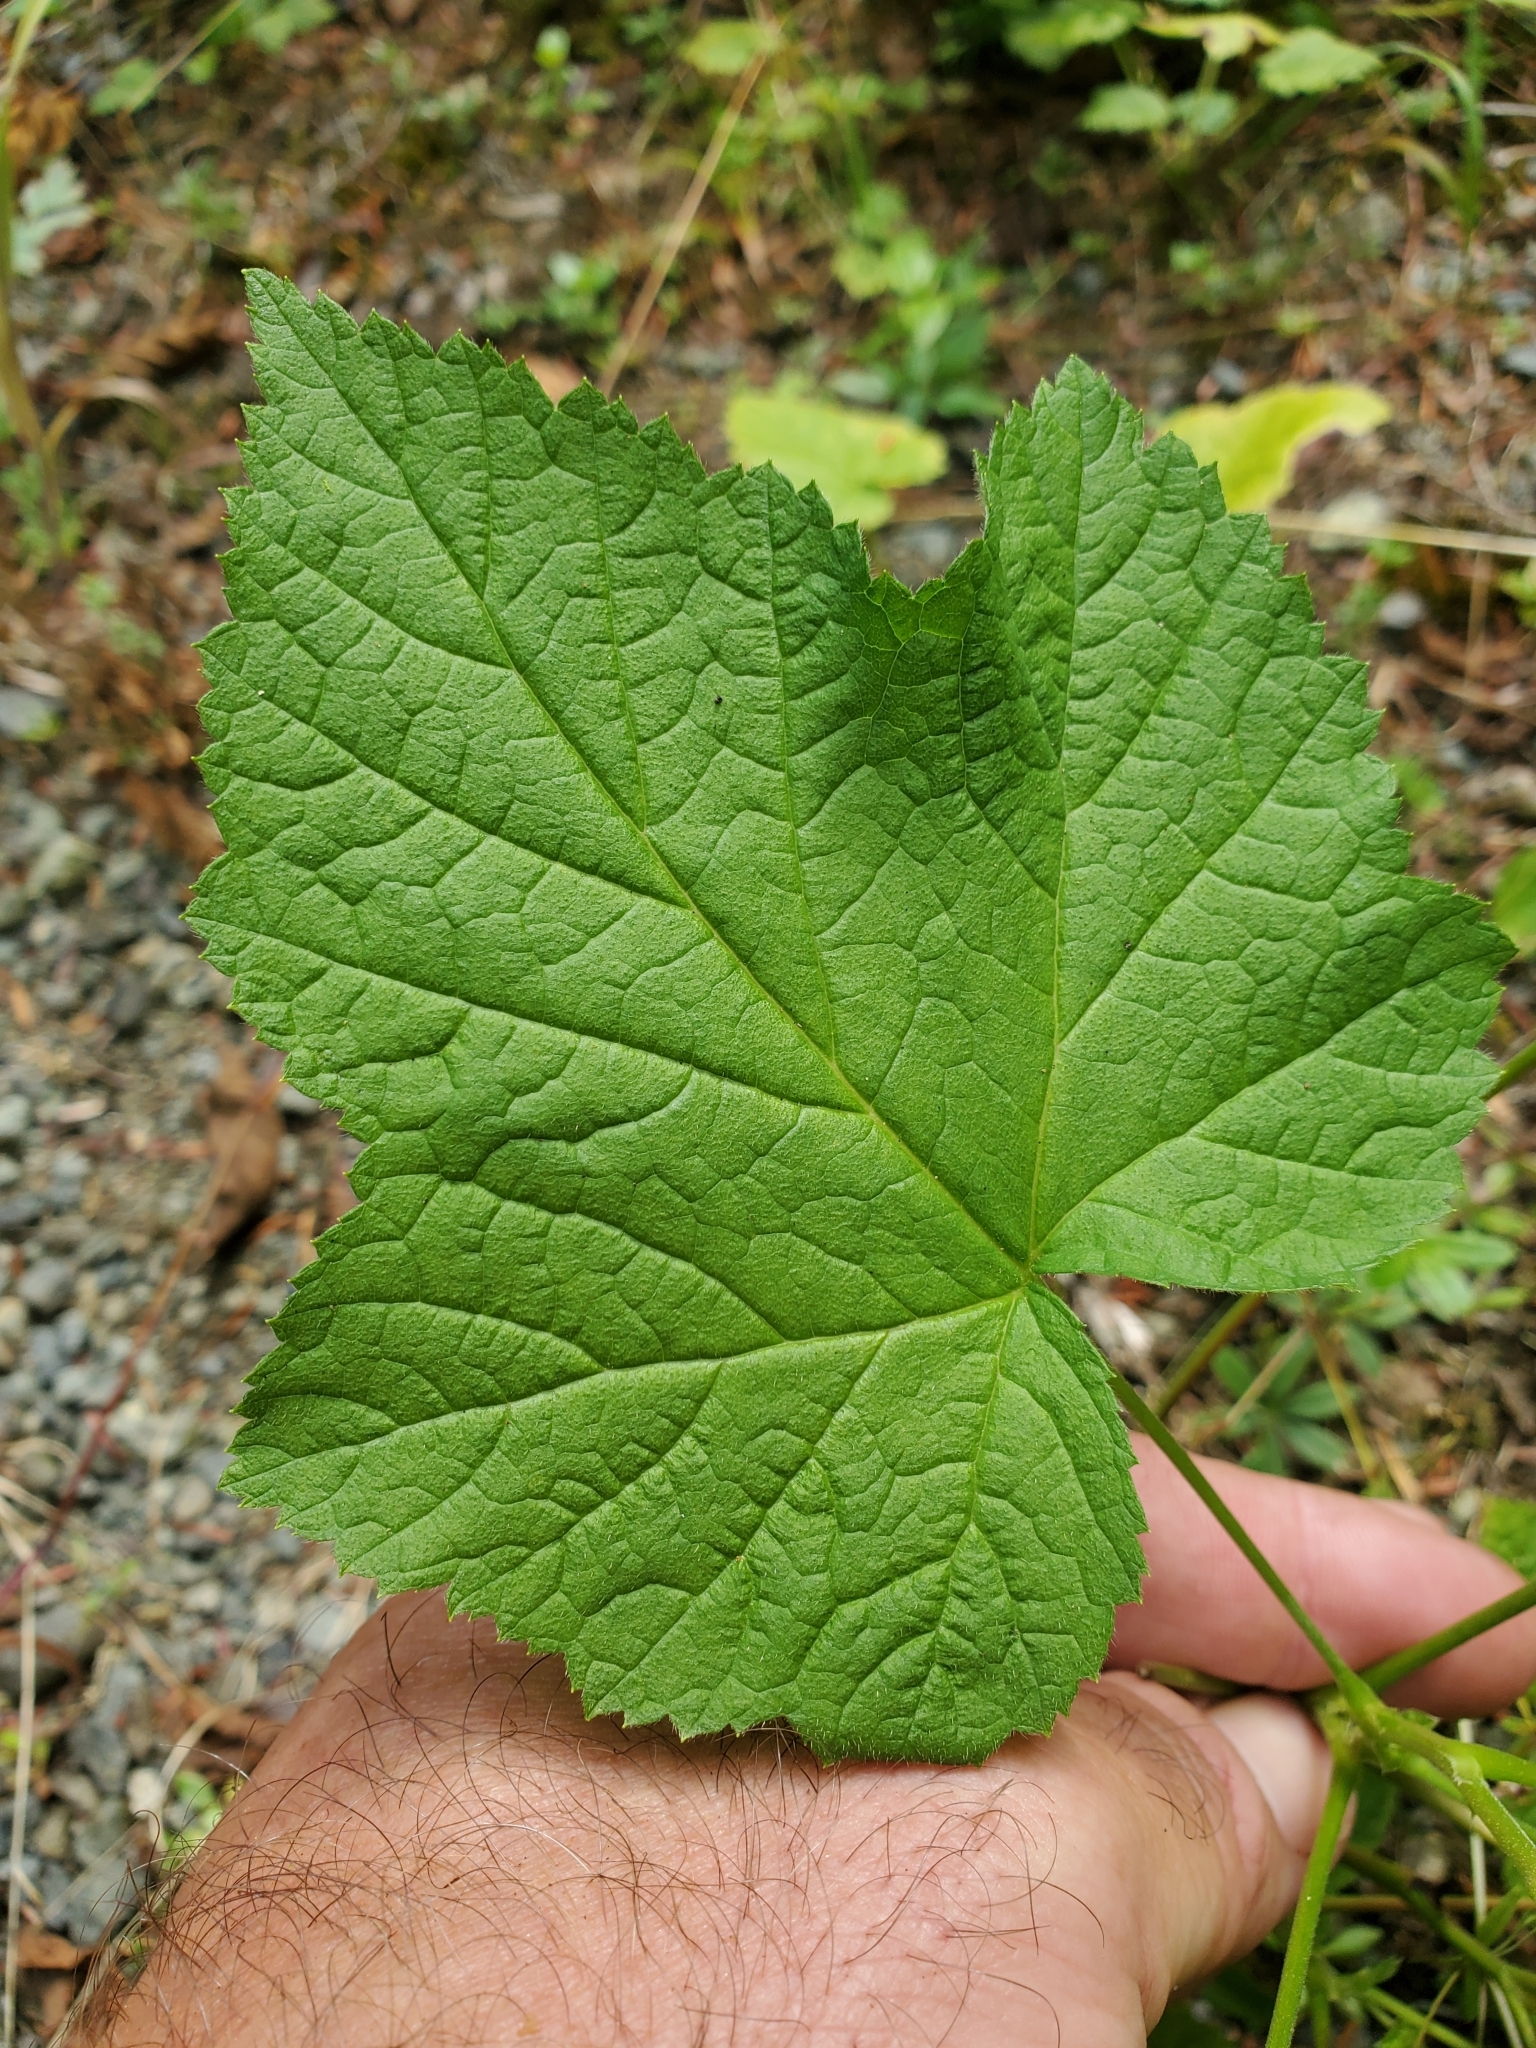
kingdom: Plantae
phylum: Tracheophyta
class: Magnoliopsida
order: Rosales
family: Rosaceae
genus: Rubus
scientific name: Rubus parviflorus
